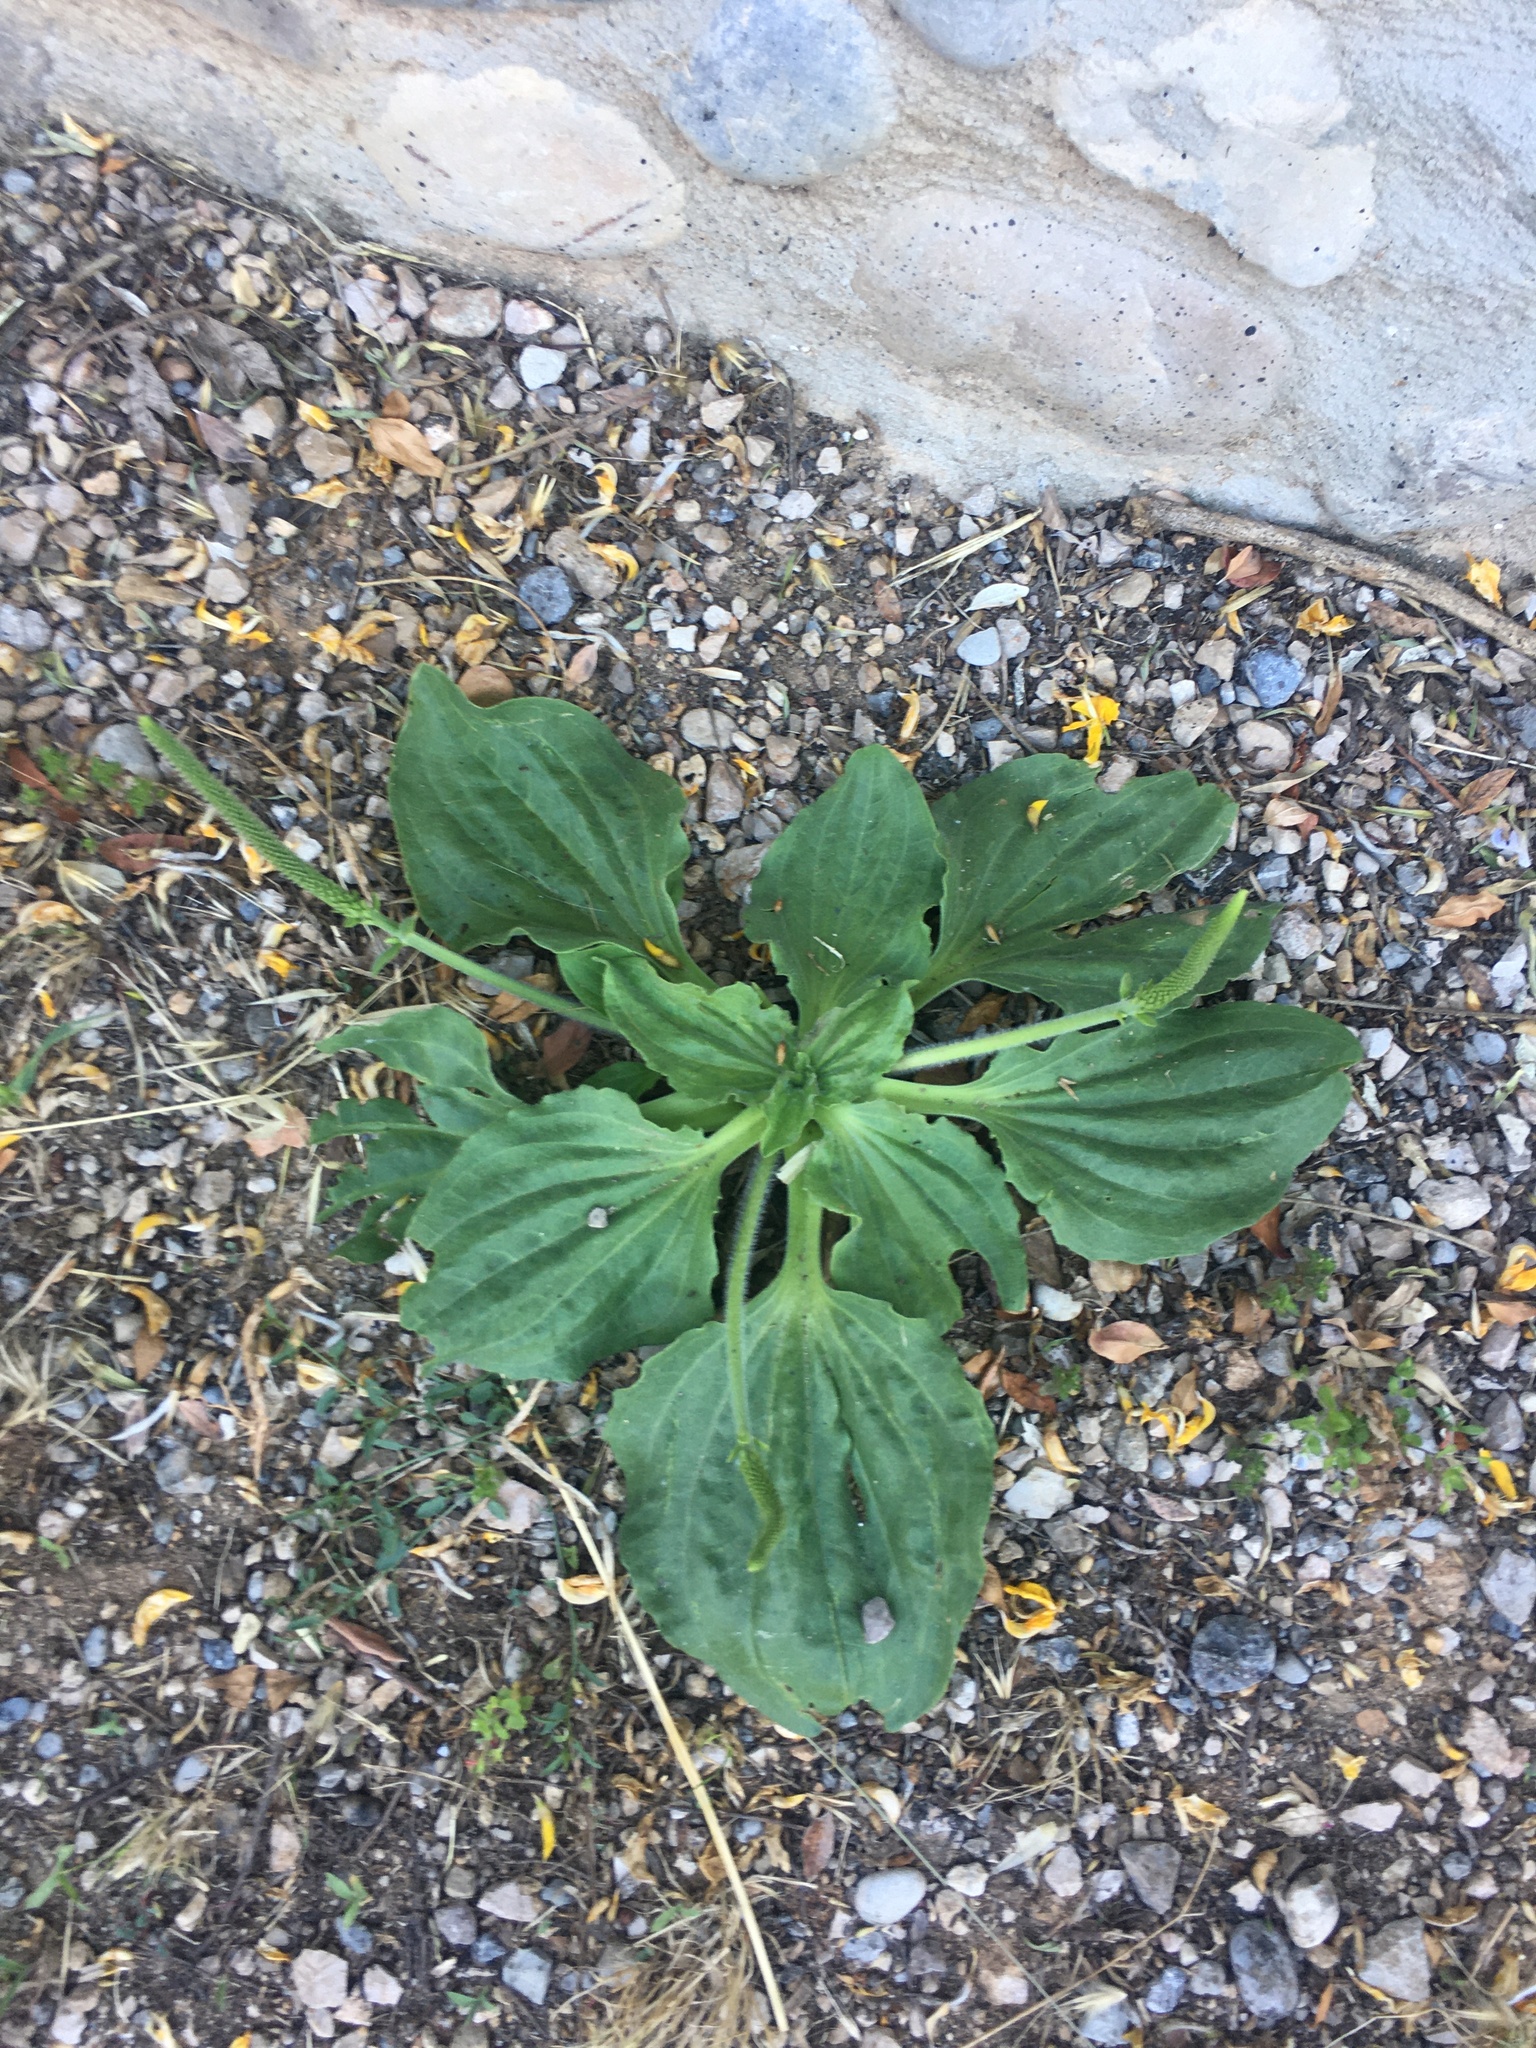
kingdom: Plantae
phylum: Tracheophyta
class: Magnoliopsida
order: Lamiales
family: Plantaginaceae
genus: Plantago
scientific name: Plantago major
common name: Common plantain
